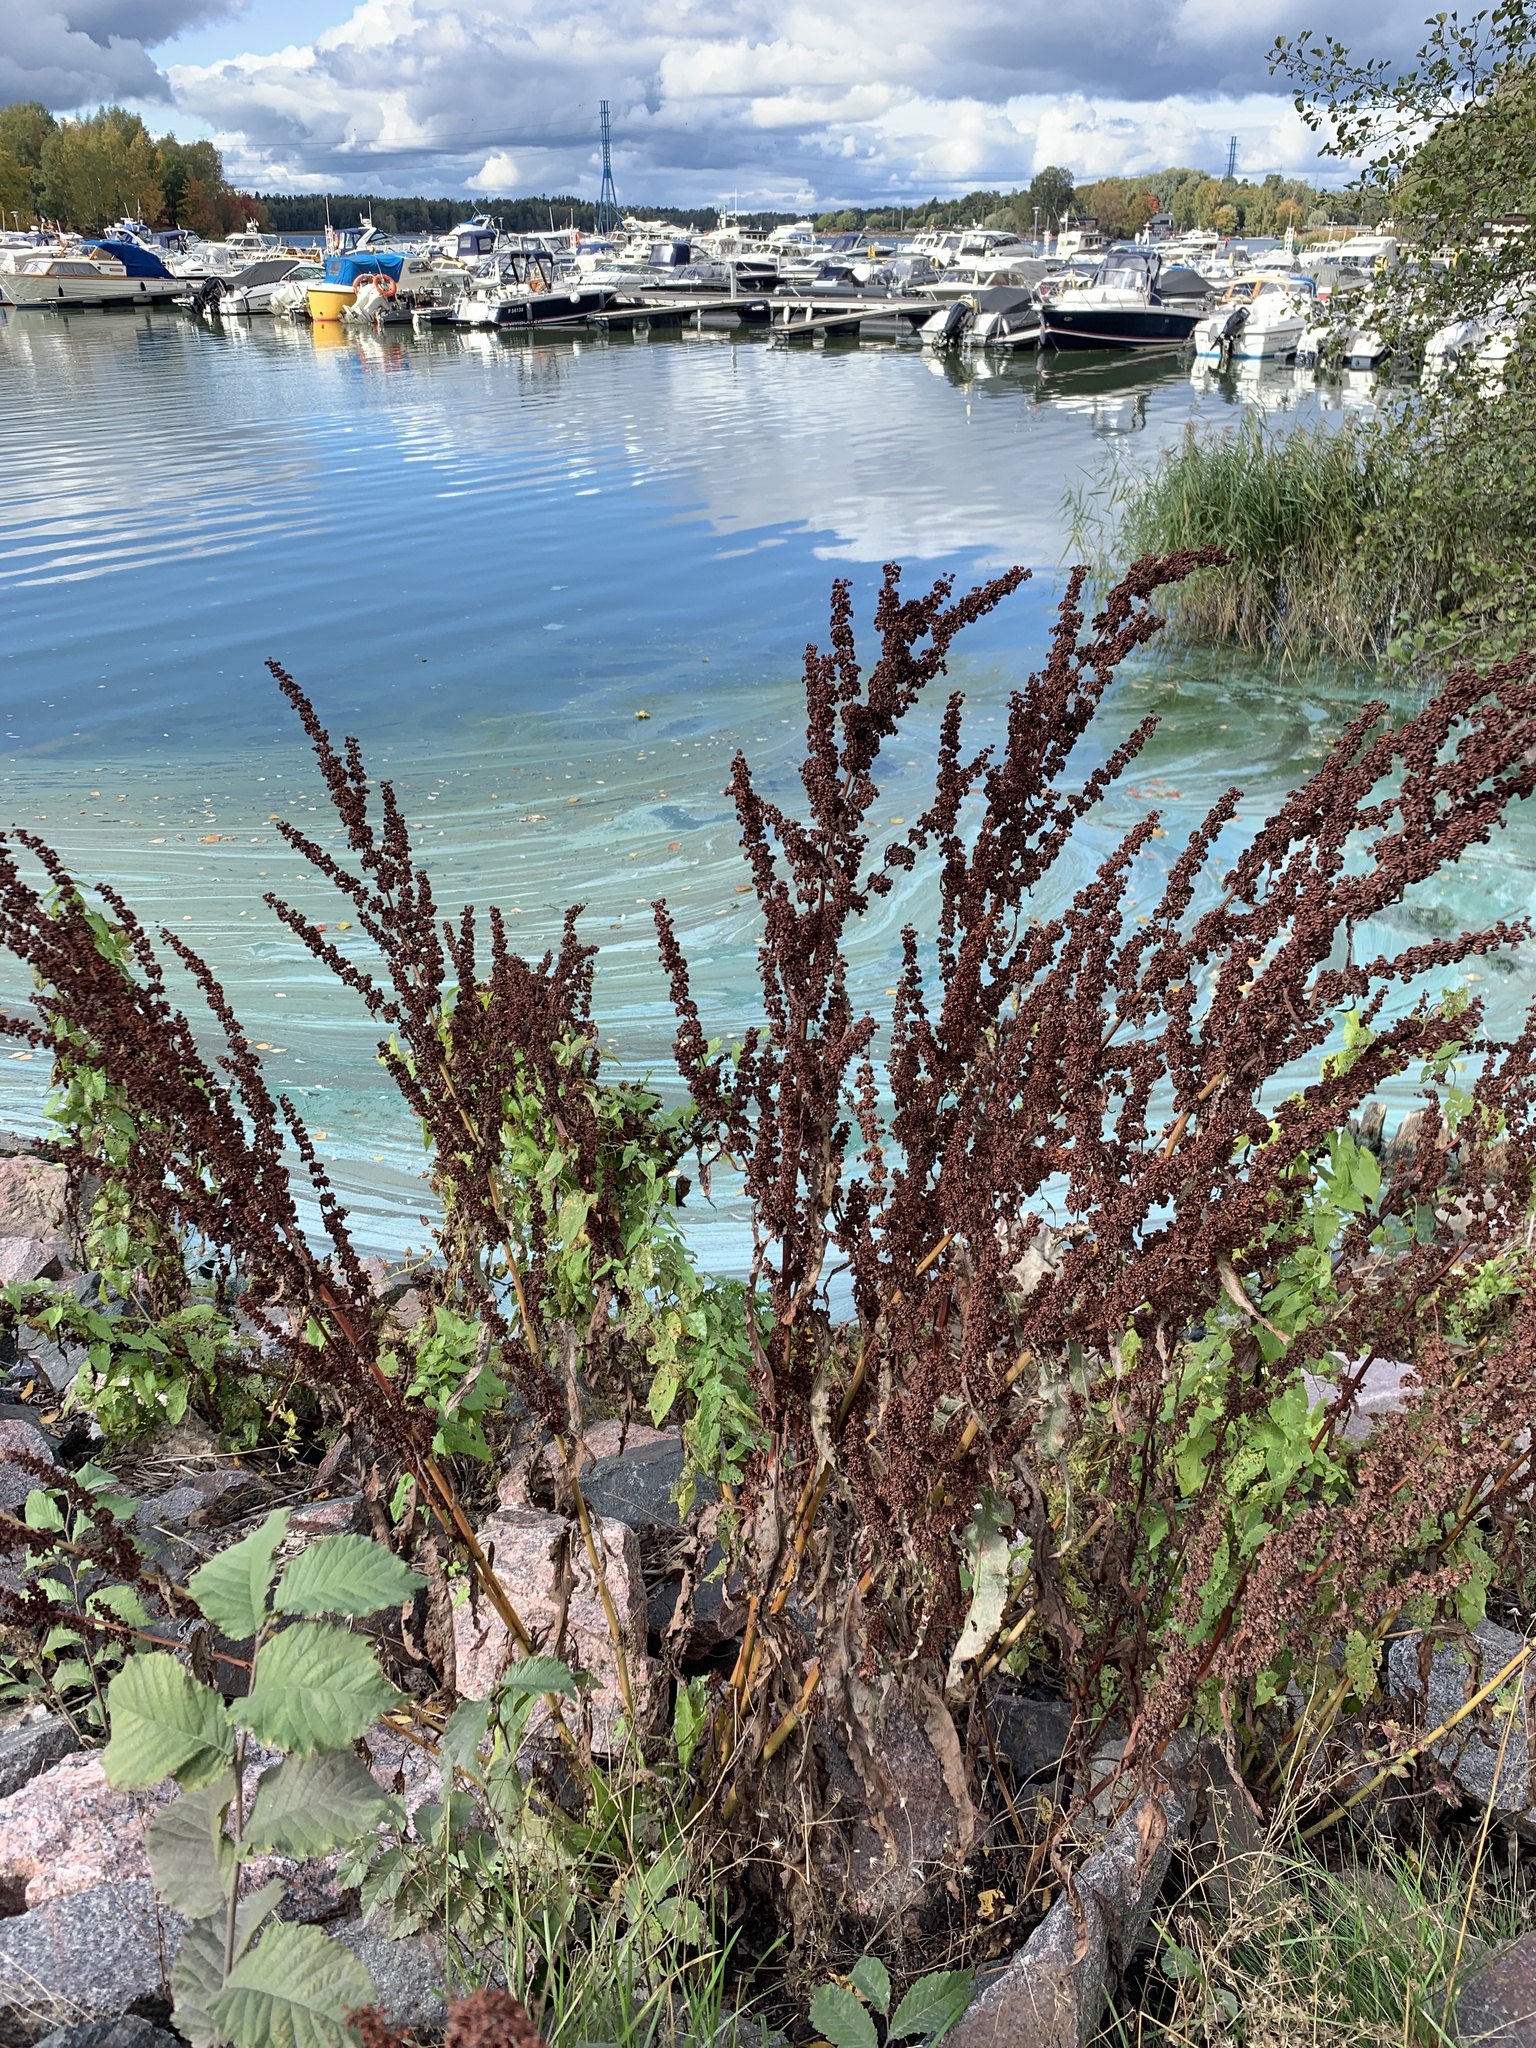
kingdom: Plantae
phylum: Tracheophyta
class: Magnoliopsida
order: Caryophyllales
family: Polygonaceae
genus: Rumex
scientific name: Rumex crispus
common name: Curled dock
